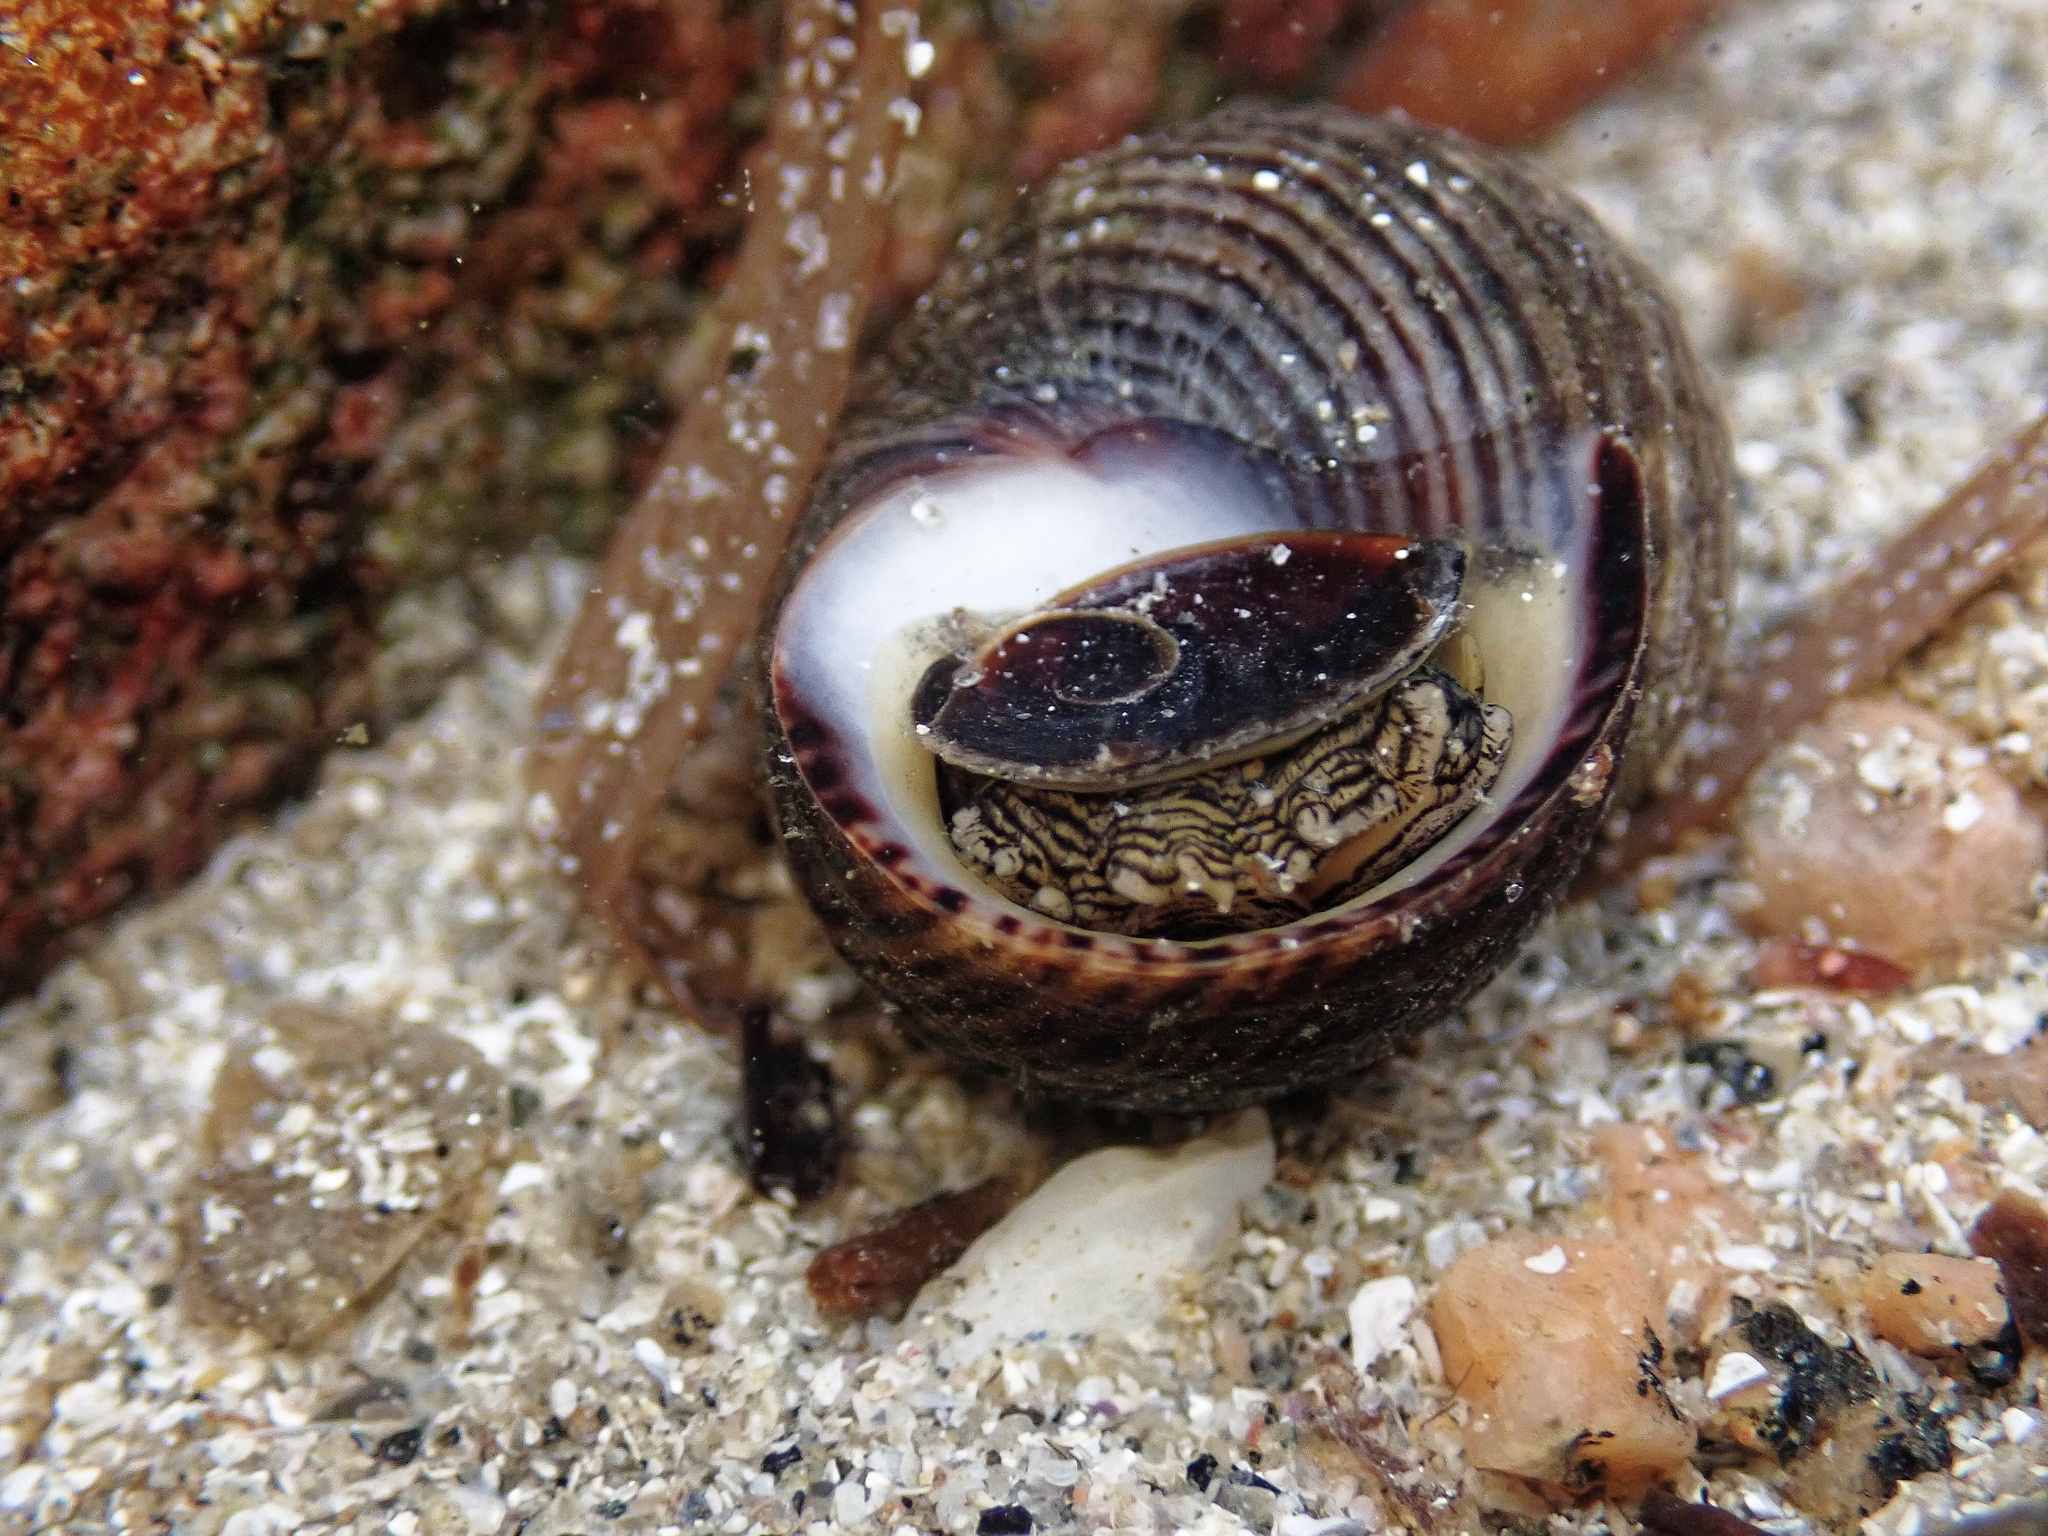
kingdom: Animalia
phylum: Mollusca
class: Gastropoda
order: Littorinimorpha
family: Littorinidae
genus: Littorina
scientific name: Littorina littorea
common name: Common periwinkle
